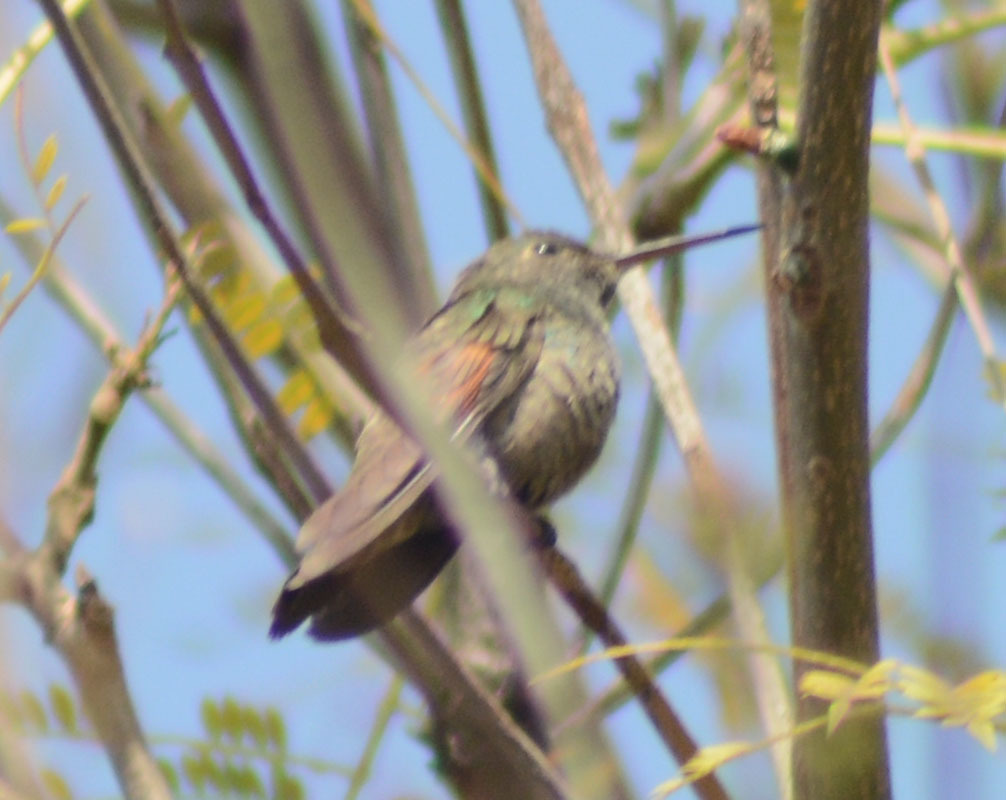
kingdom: Animalia
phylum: Chordata
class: Aves
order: Apodiformes
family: Trochilidae
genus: Saucerottia
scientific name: Saucerottia beryllina
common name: Berylline hummingbird
